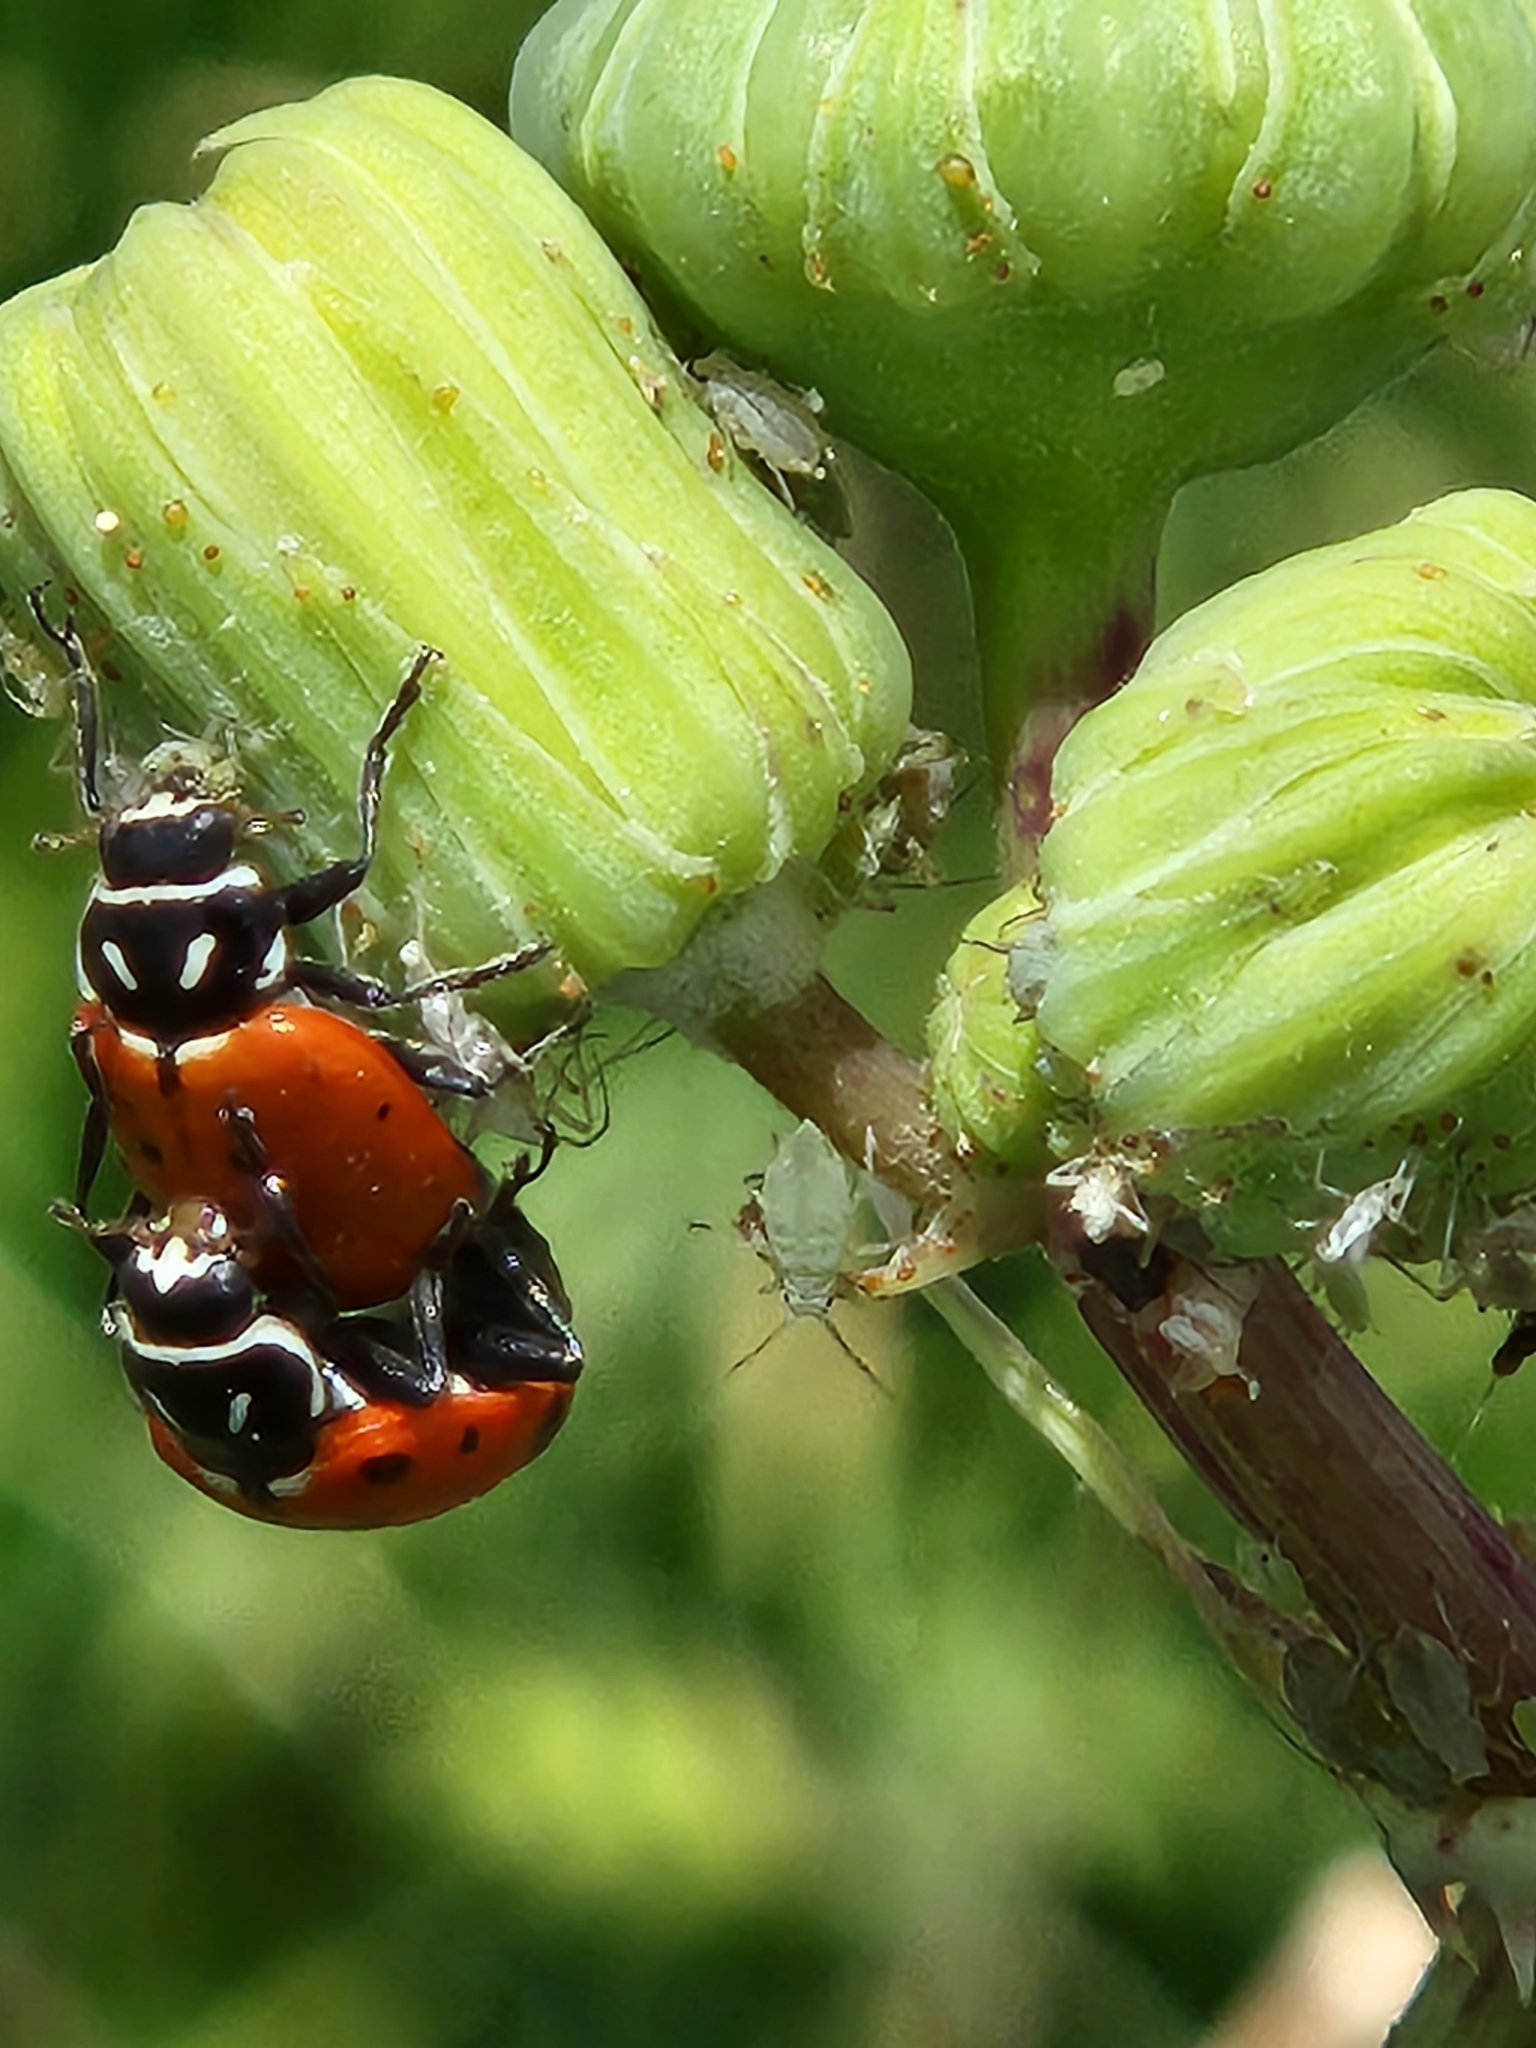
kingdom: Animalia
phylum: Arthropoda
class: Insecta
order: Coleoptera
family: Coccinellidae
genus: Hippodamia
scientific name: Hippodamia convergens
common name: Convergent lady beetle
